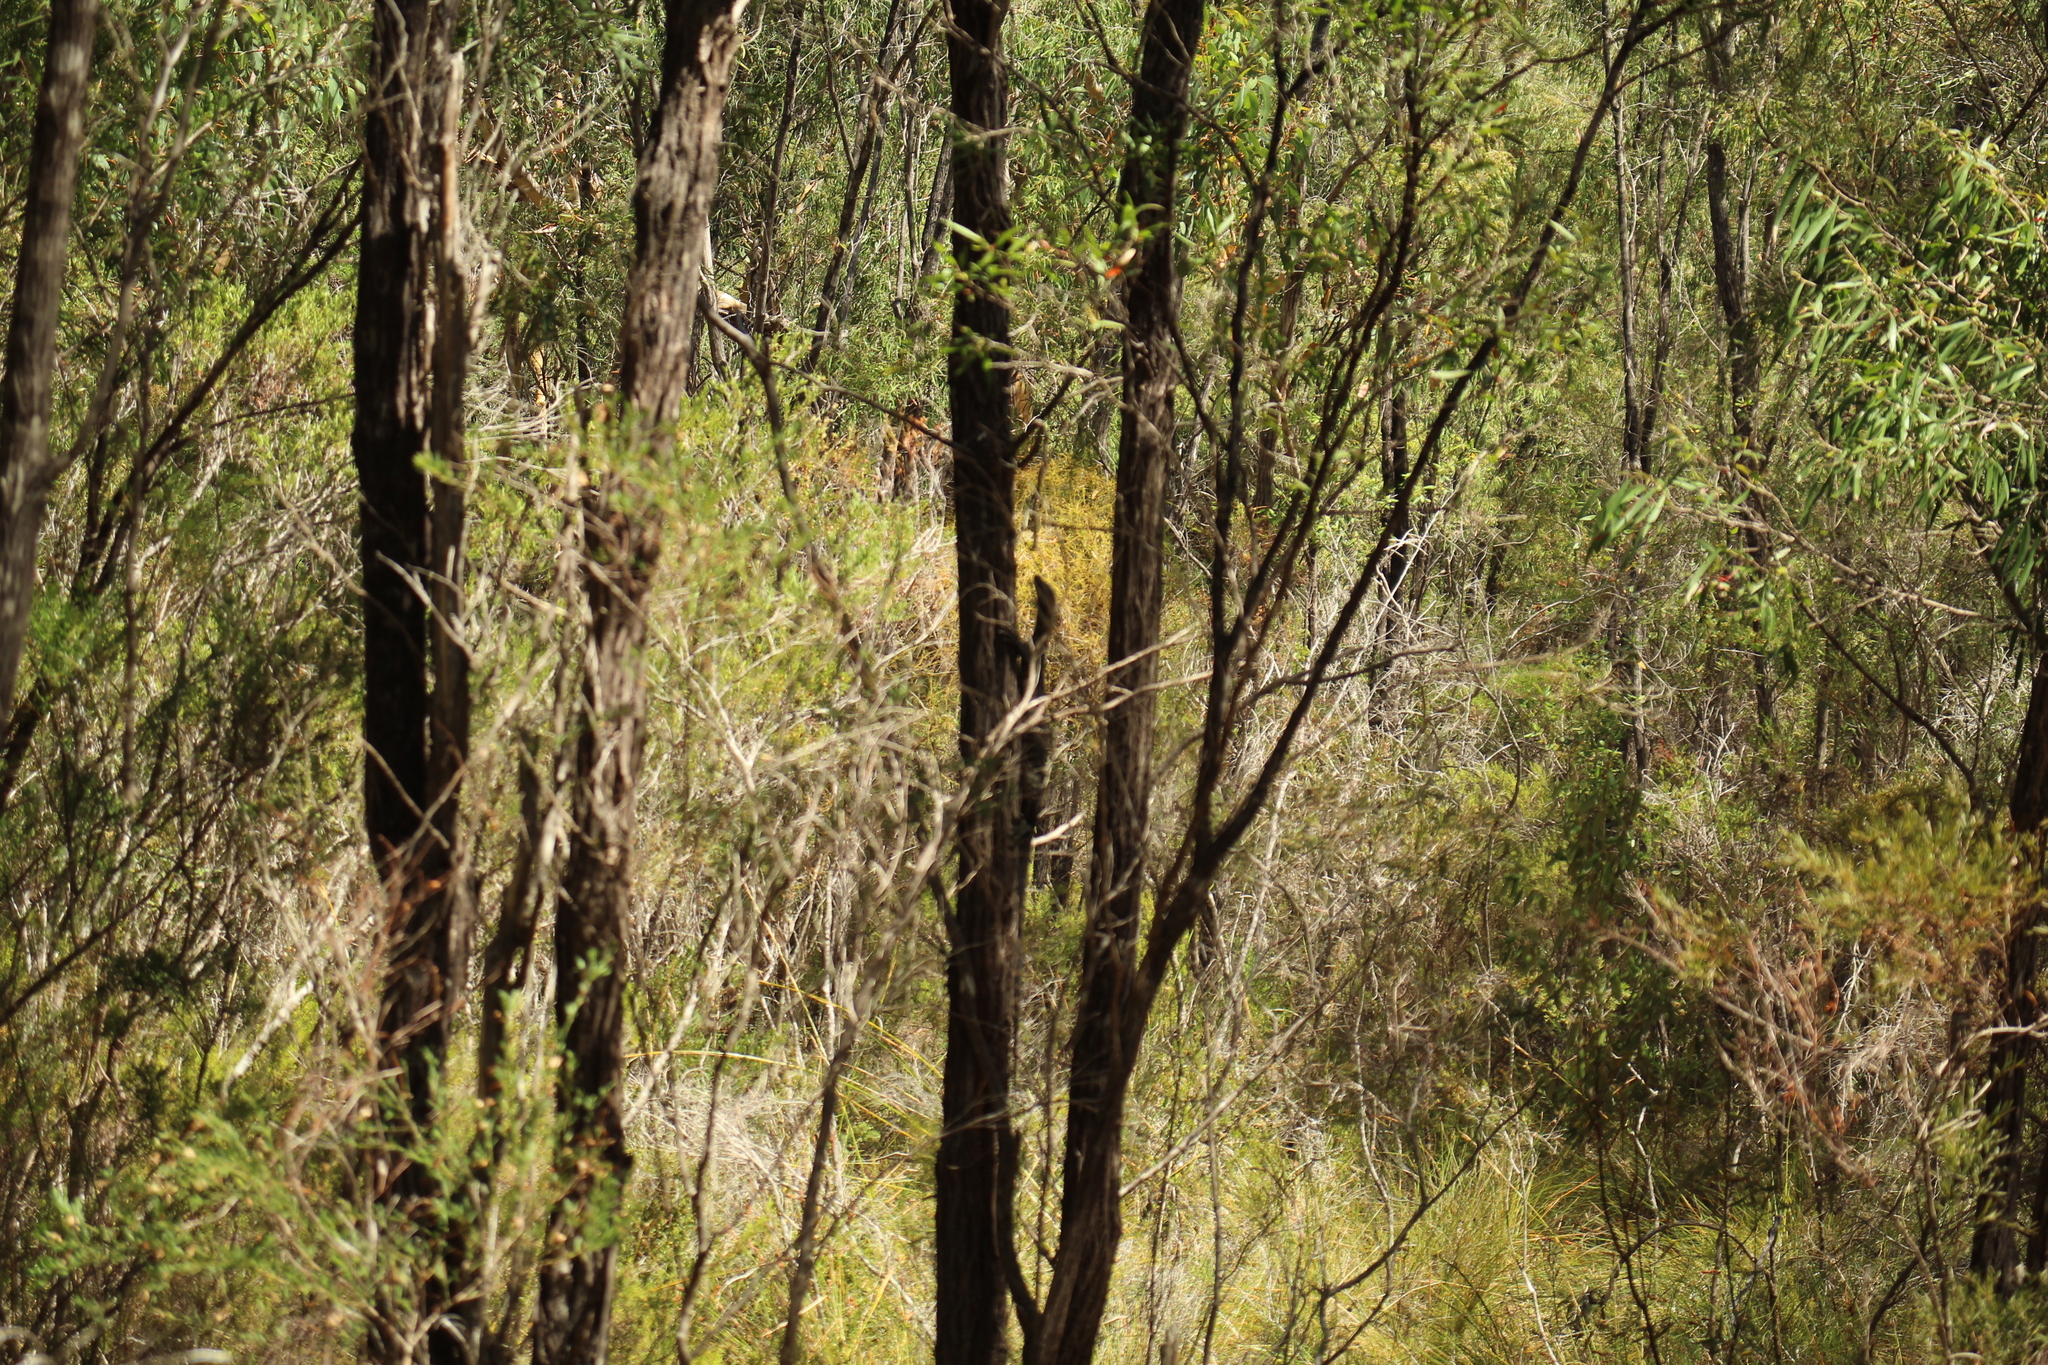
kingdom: Animalia
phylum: Chordata
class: Squamata
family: Varanidae
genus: Varanus
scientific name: Varanus rosenbergi
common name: Heath monitor
